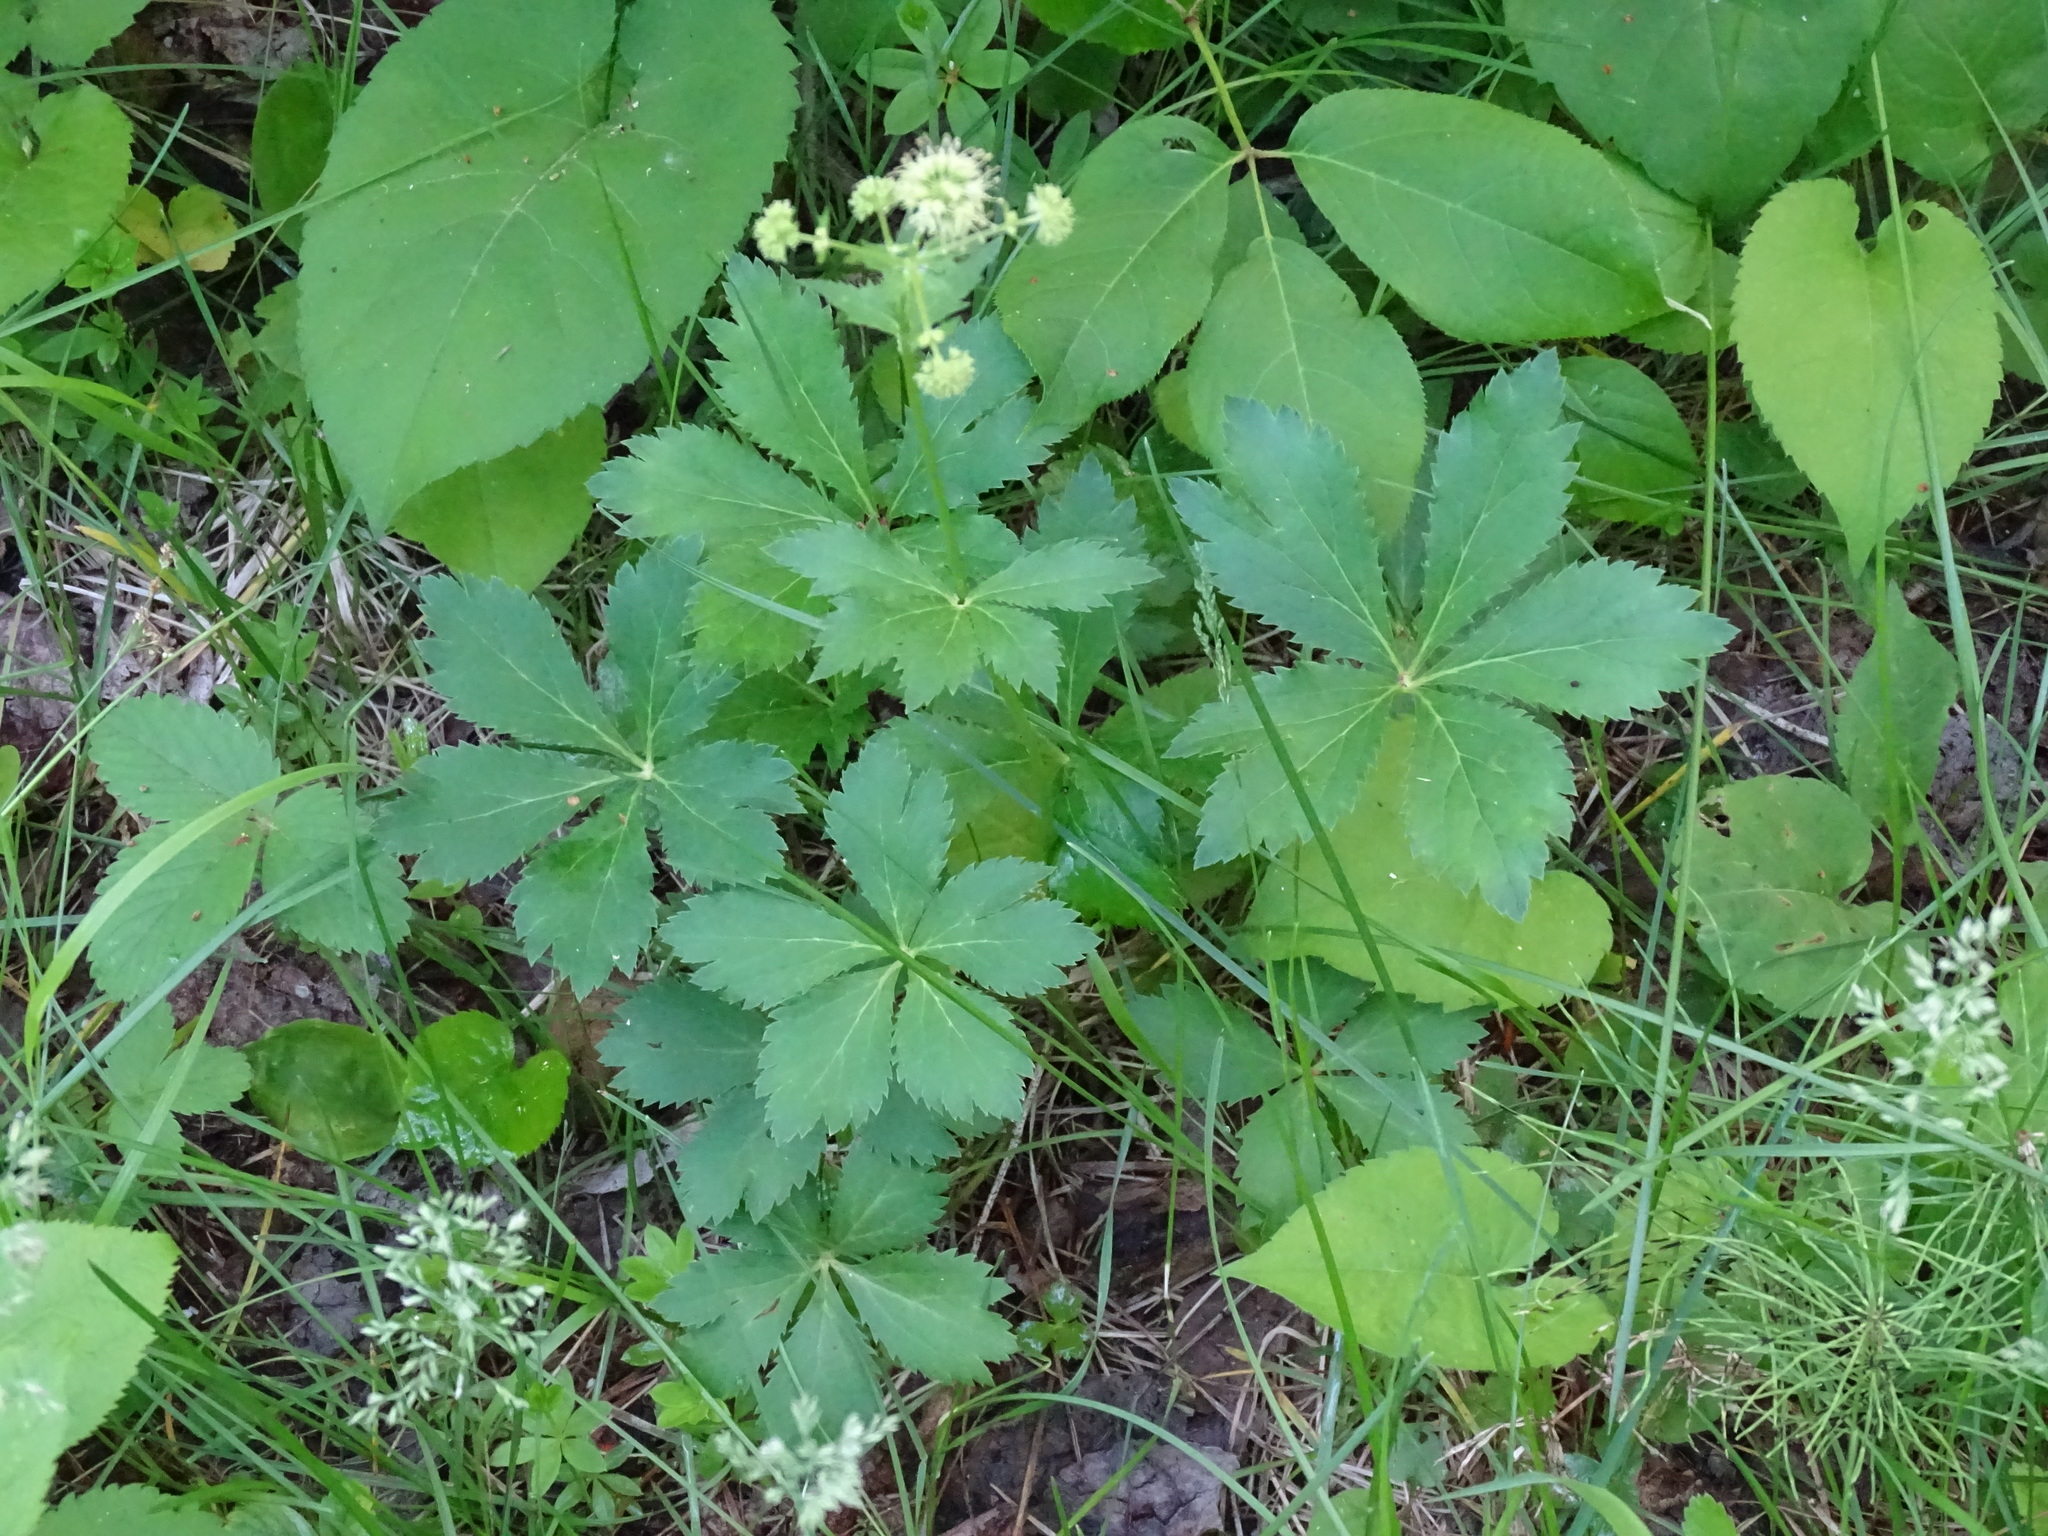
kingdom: Plantae
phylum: Tracheophyta
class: Magnoliopsida
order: Apiales
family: Apiaceae
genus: Sanicula
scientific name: Sanicula marilandica
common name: Black snakeroot
